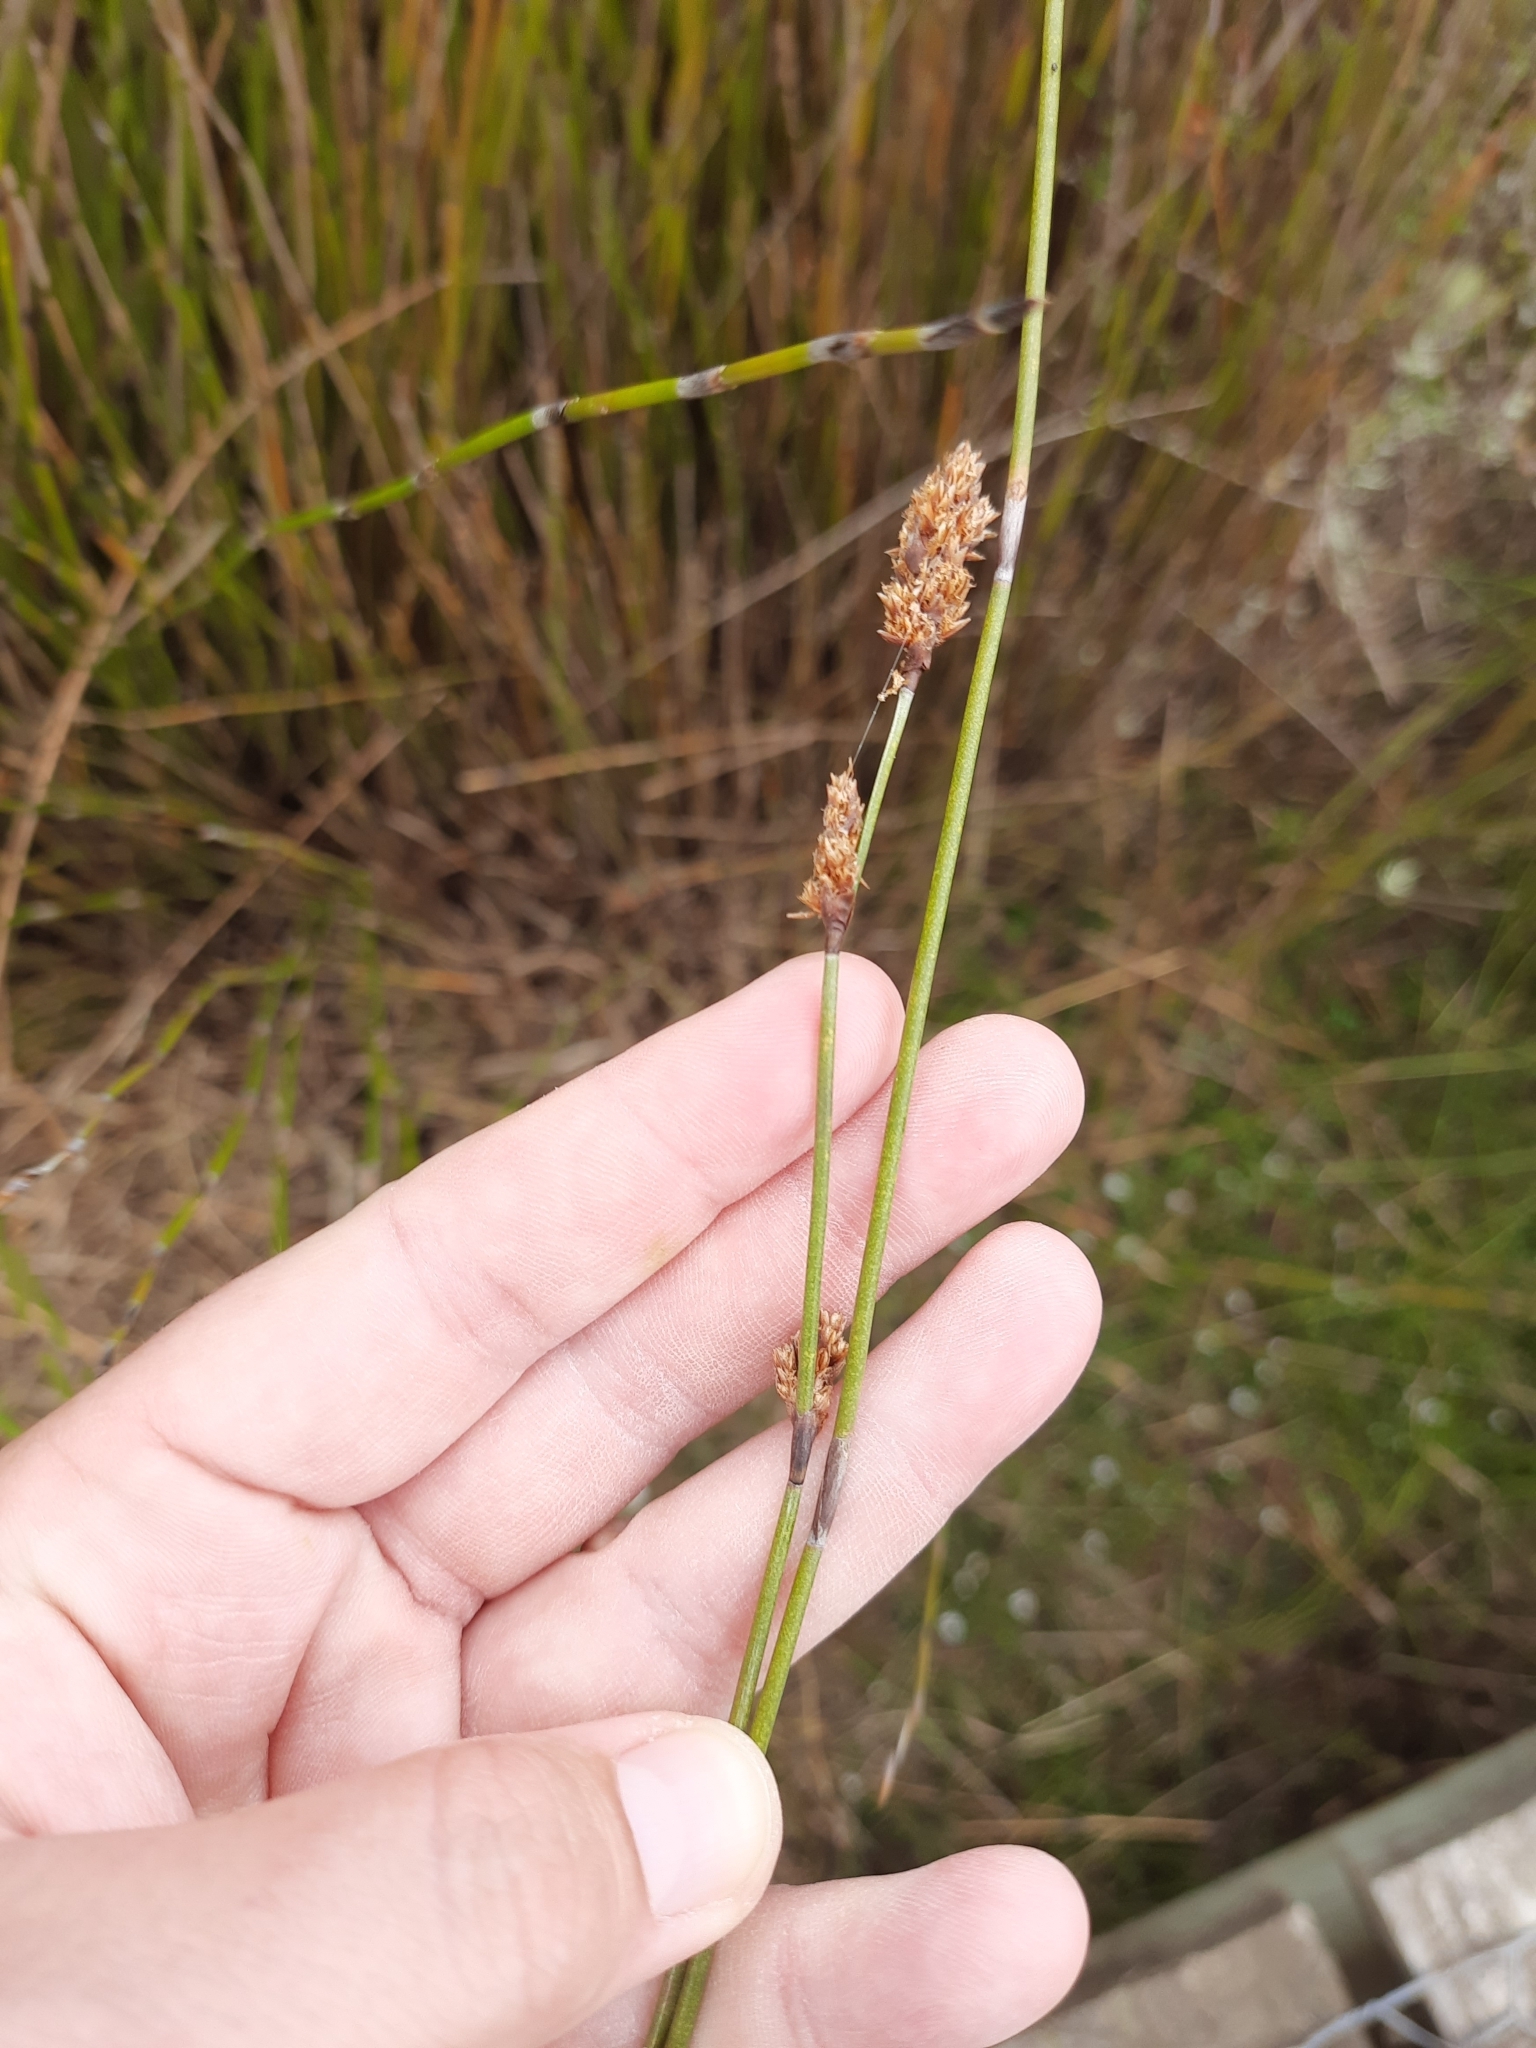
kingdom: Plantae
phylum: Tracheophyta
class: Liliopsida
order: Poales
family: Restionaceae
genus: Apodasmia
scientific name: Apodasmia similis
